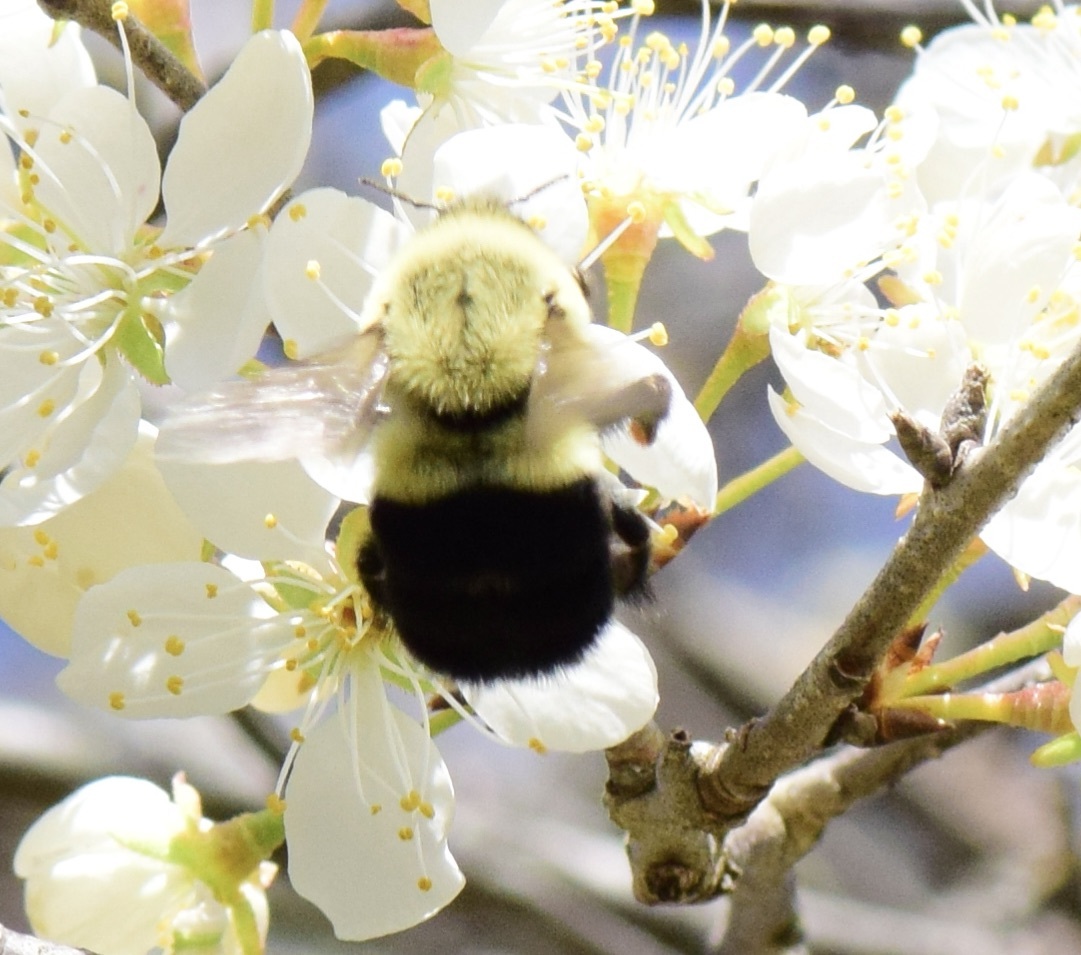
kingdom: Animalia
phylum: Arthropoda
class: Insecta
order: Hymenoptera
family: Apidae
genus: Bombus
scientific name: Bombus impatiens
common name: Common eastern bumble bee
